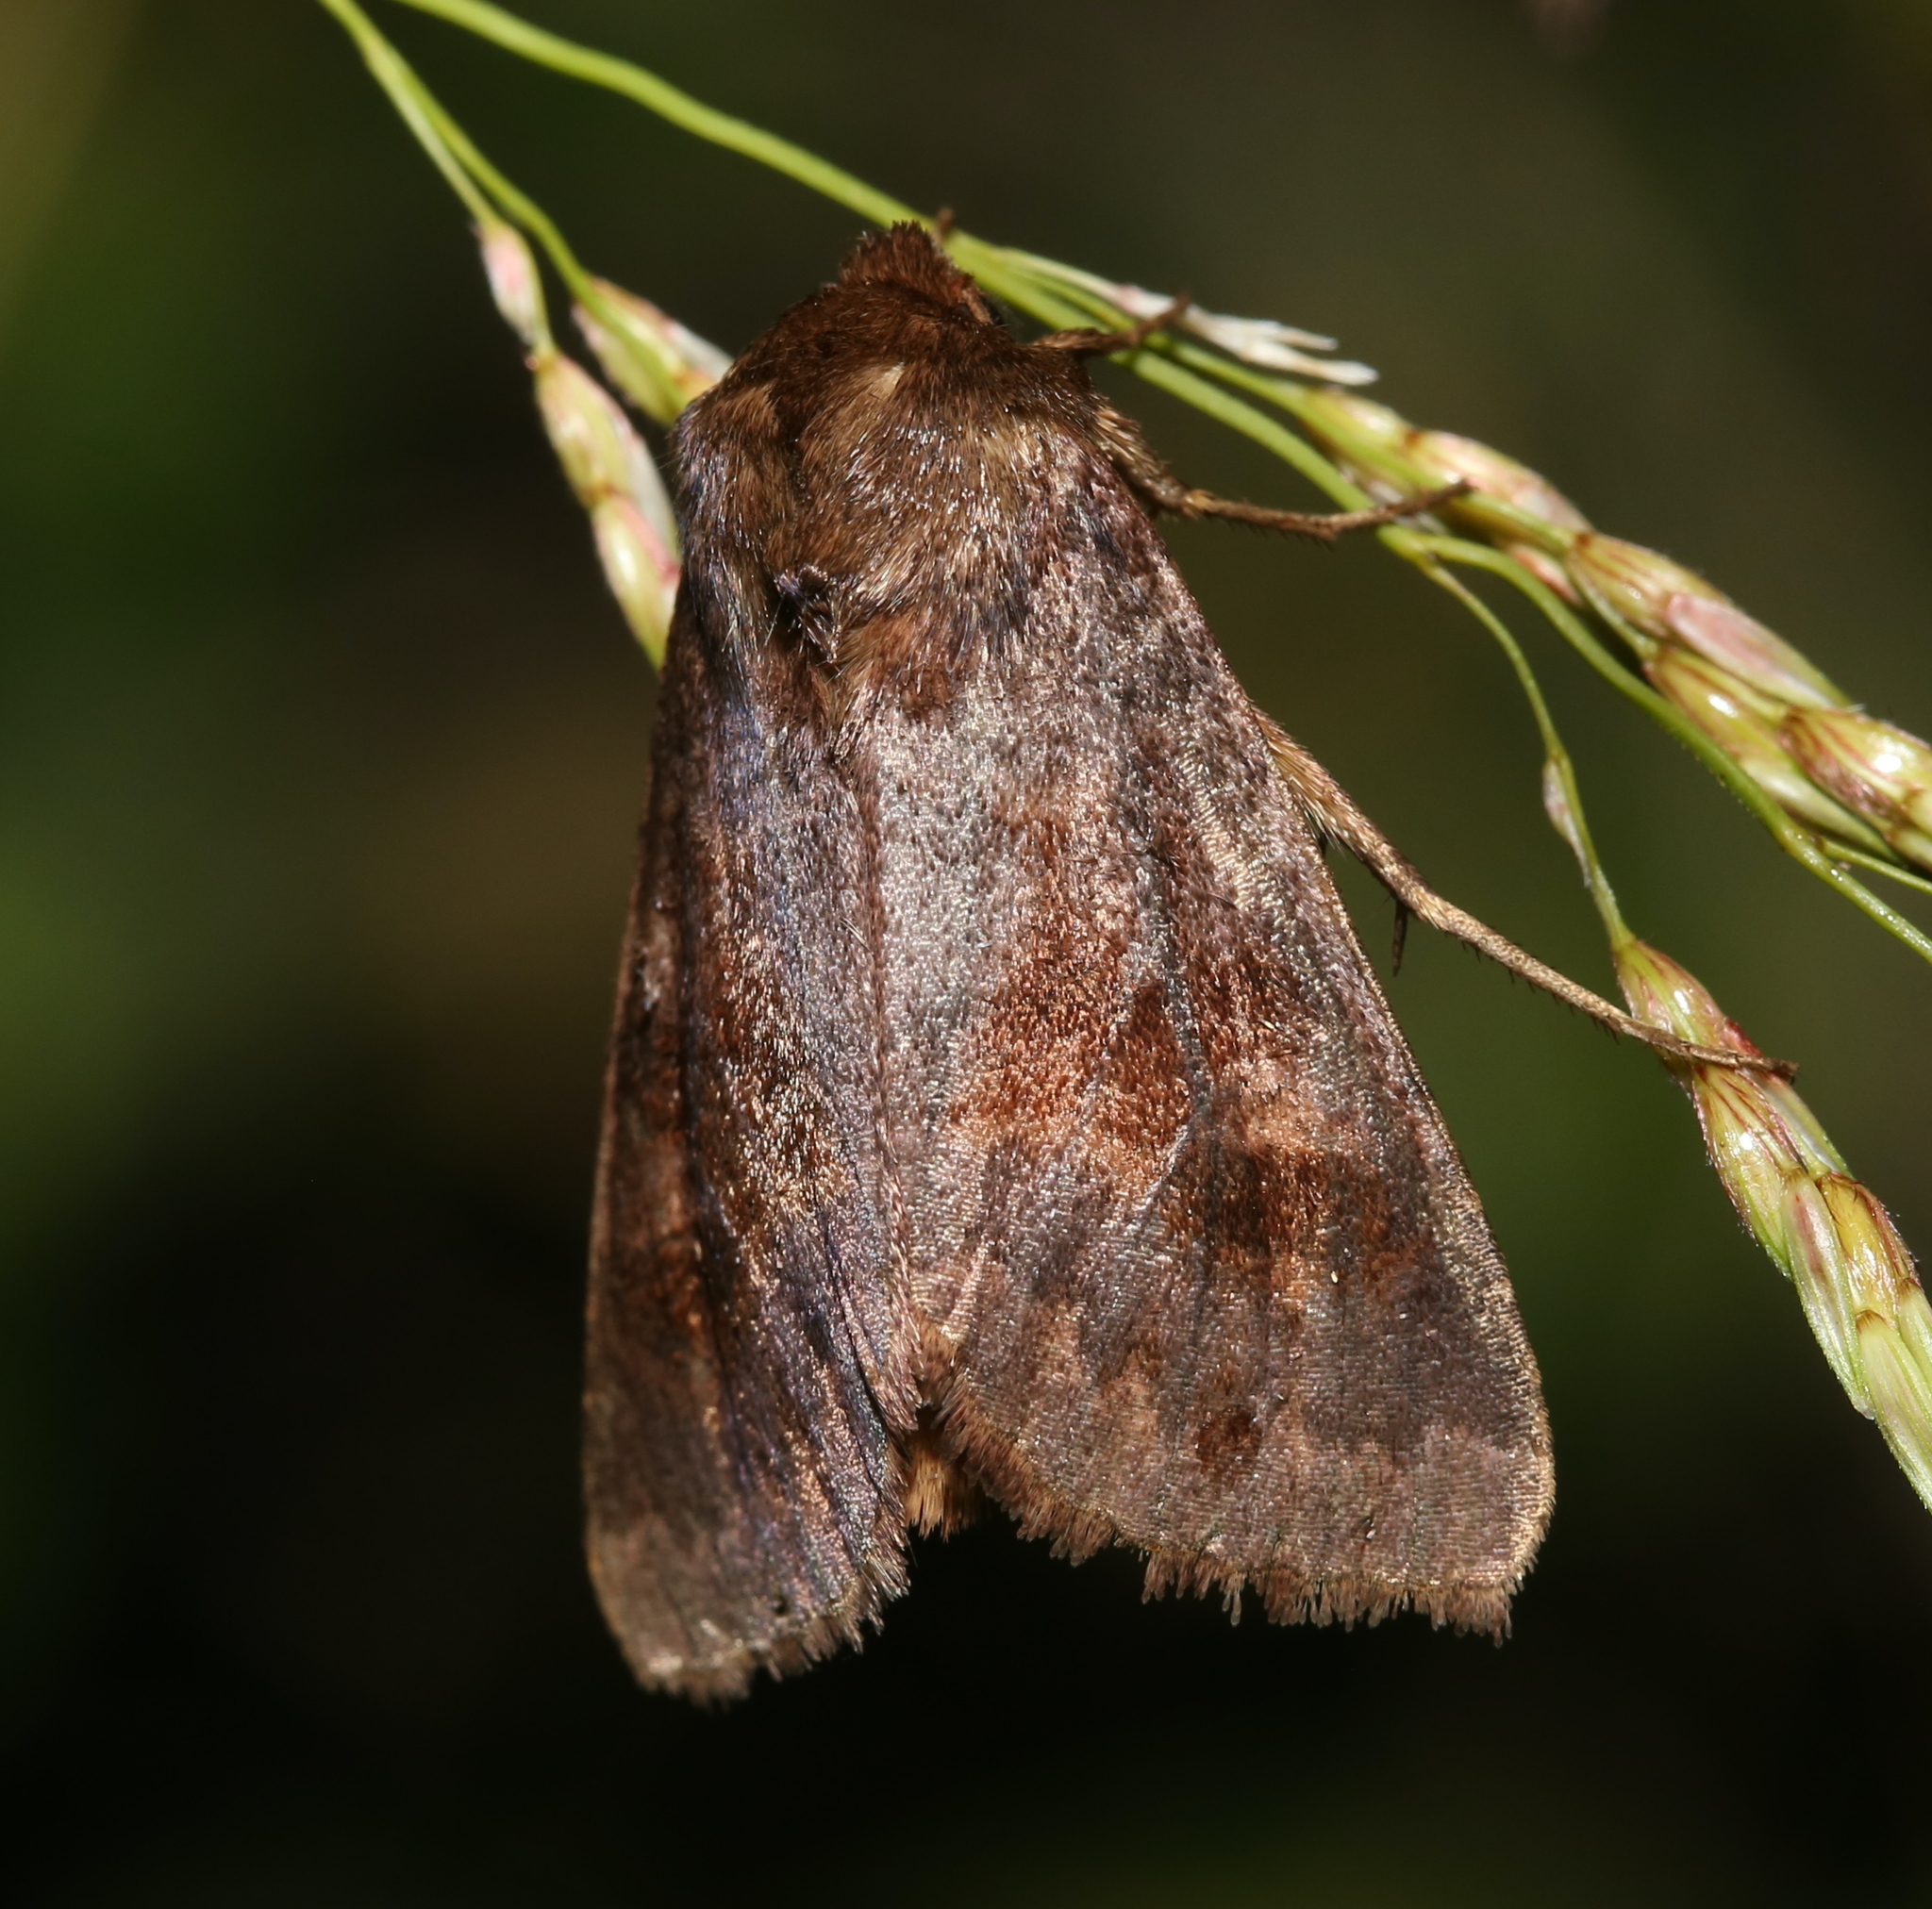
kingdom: Animalia
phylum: Arthropoda
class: Insecta
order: Lepidoptera
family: Noctuidae
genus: Nephelodes
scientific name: Nephelodes minians
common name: Bronzed cutworm
